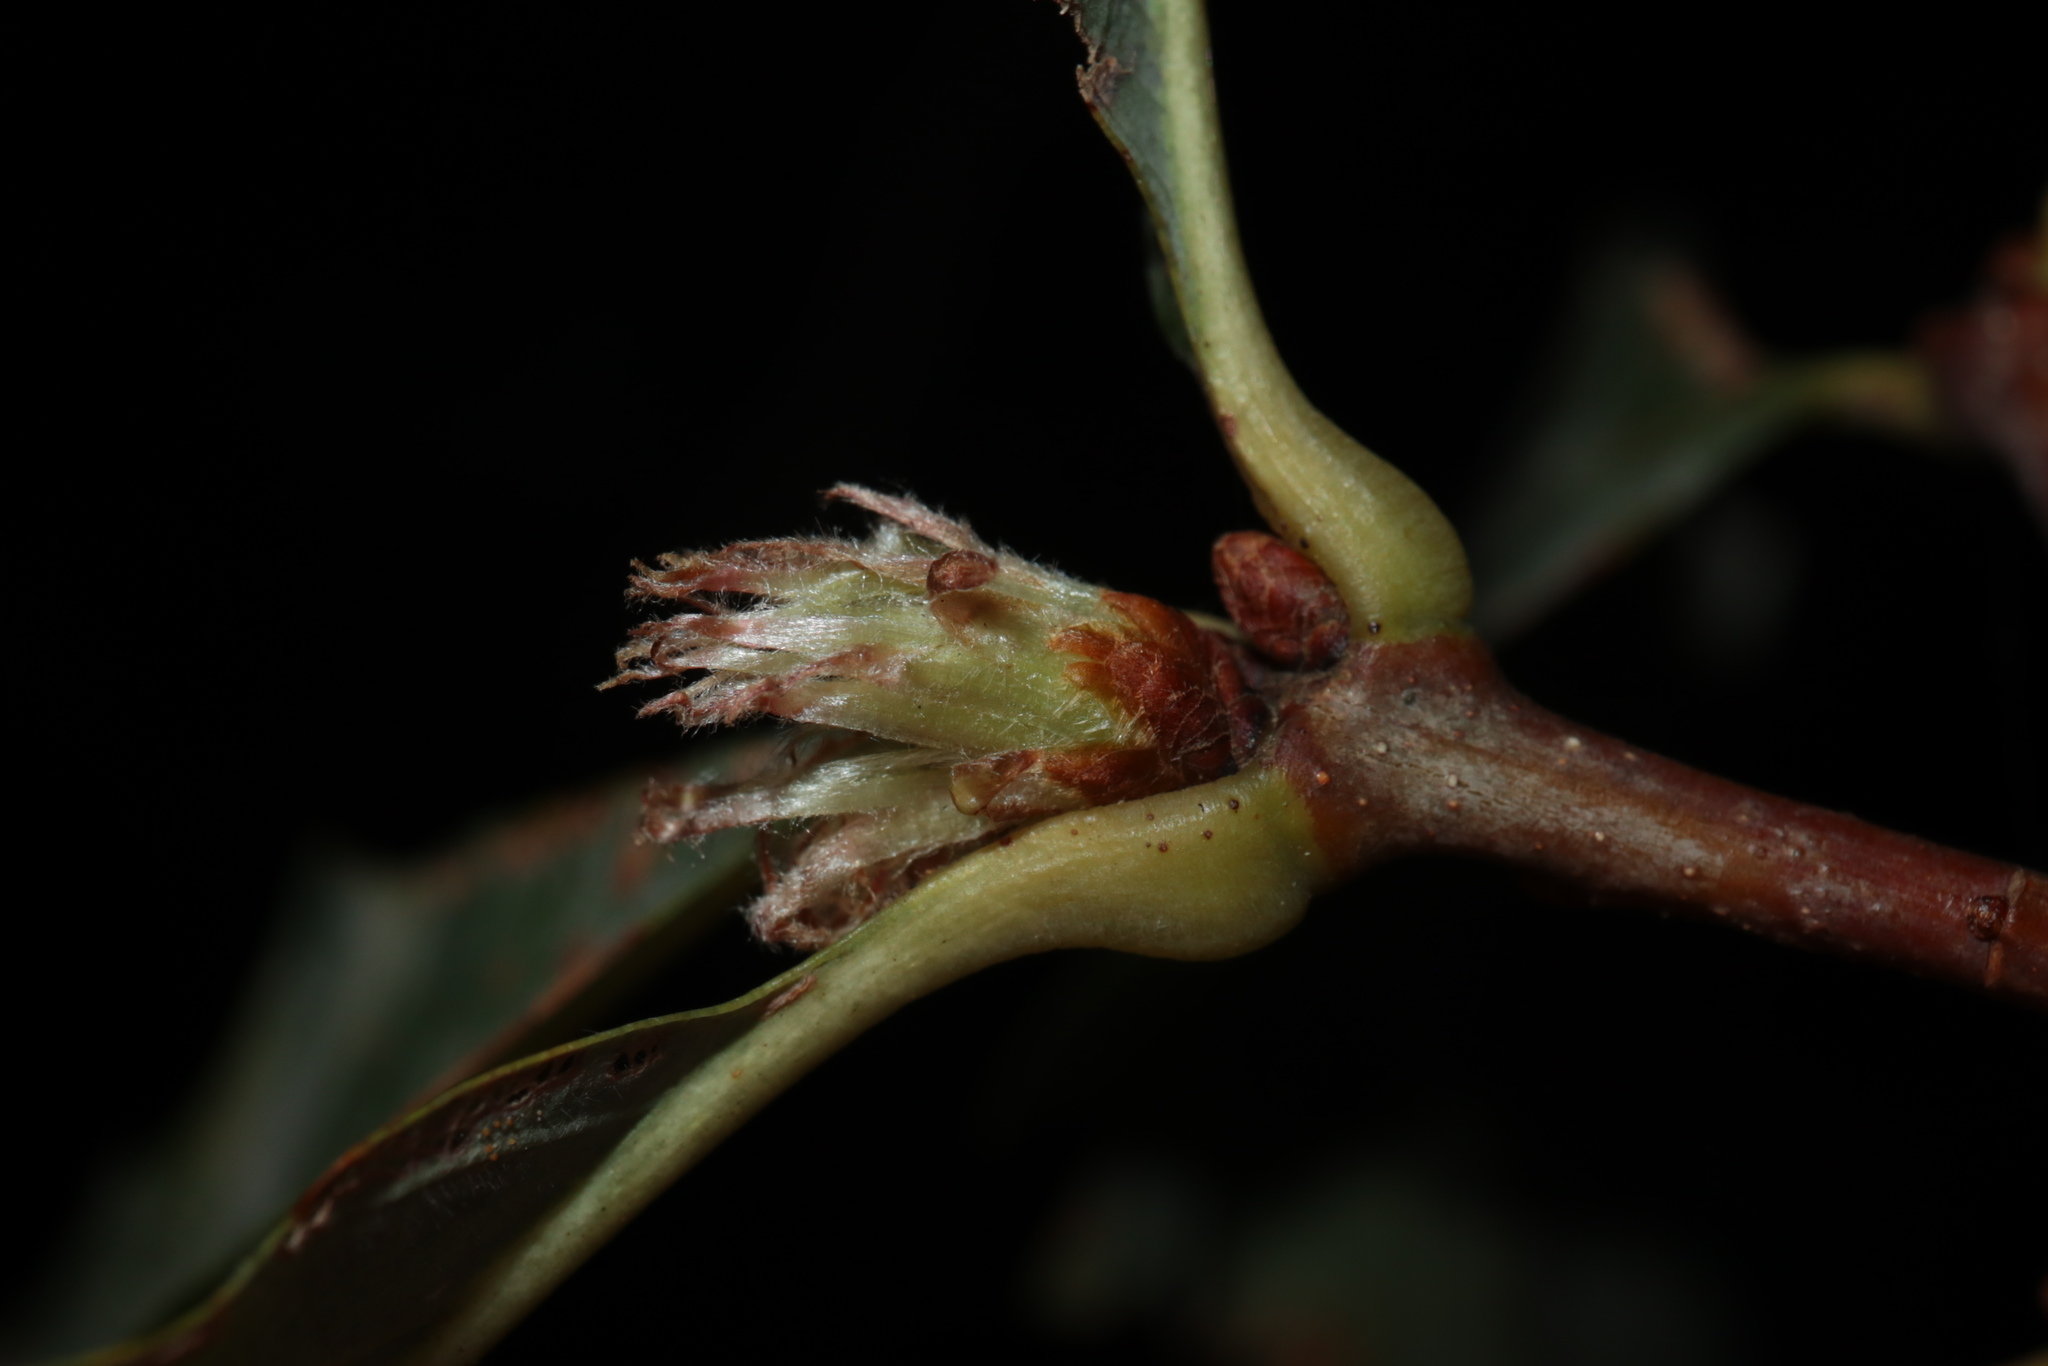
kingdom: Animalia
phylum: Arthropoda
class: Insecta
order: Hymenoptera
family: Cynipidae
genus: Andricus
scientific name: Andricus
